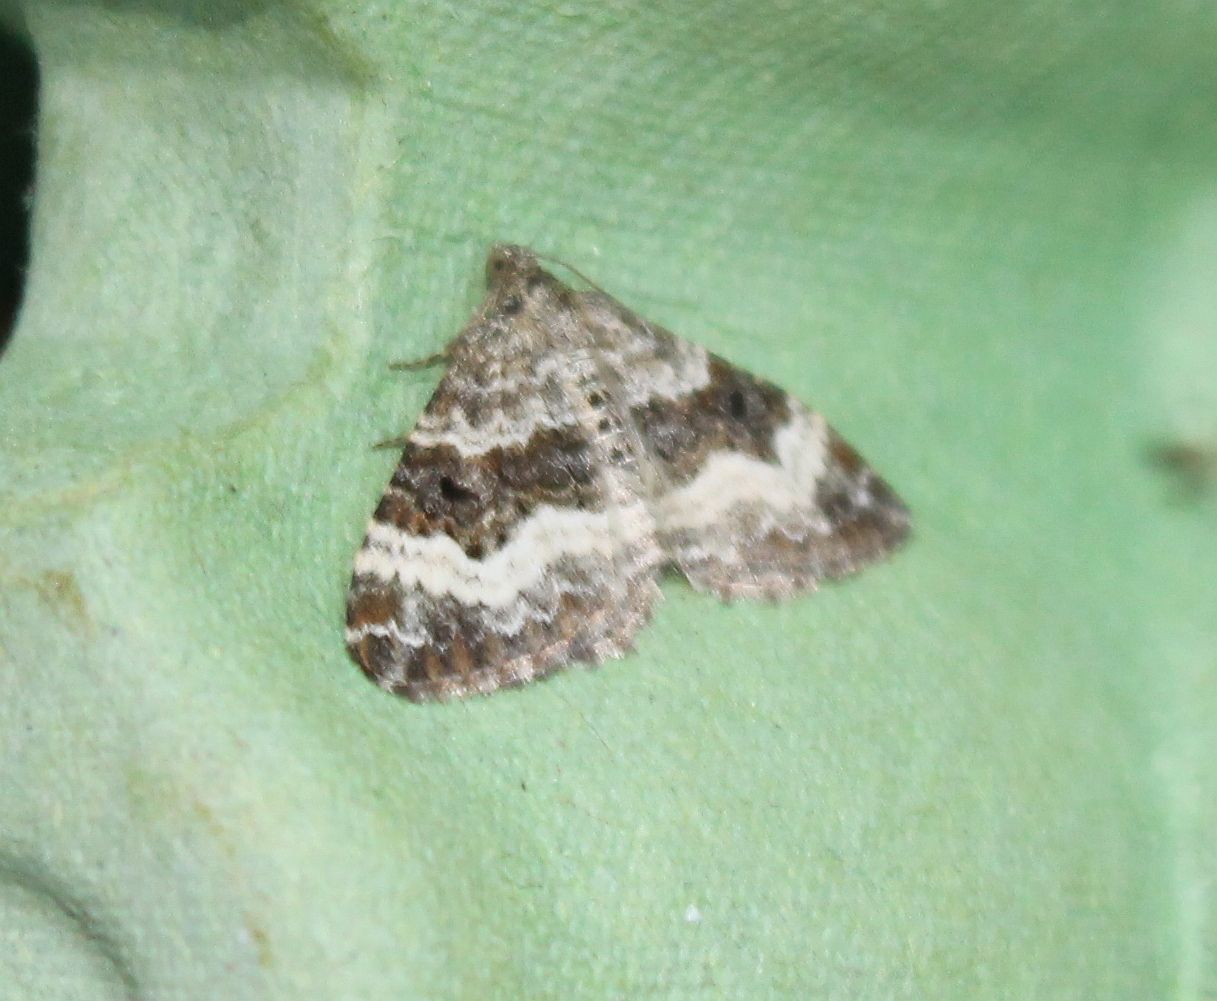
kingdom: Animalia
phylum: Arthropoda
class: Insecta
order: Lepidoptera
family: Geometridae
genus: Epirrhoe
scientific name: Epirrhoe alternata
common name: Common carpet
